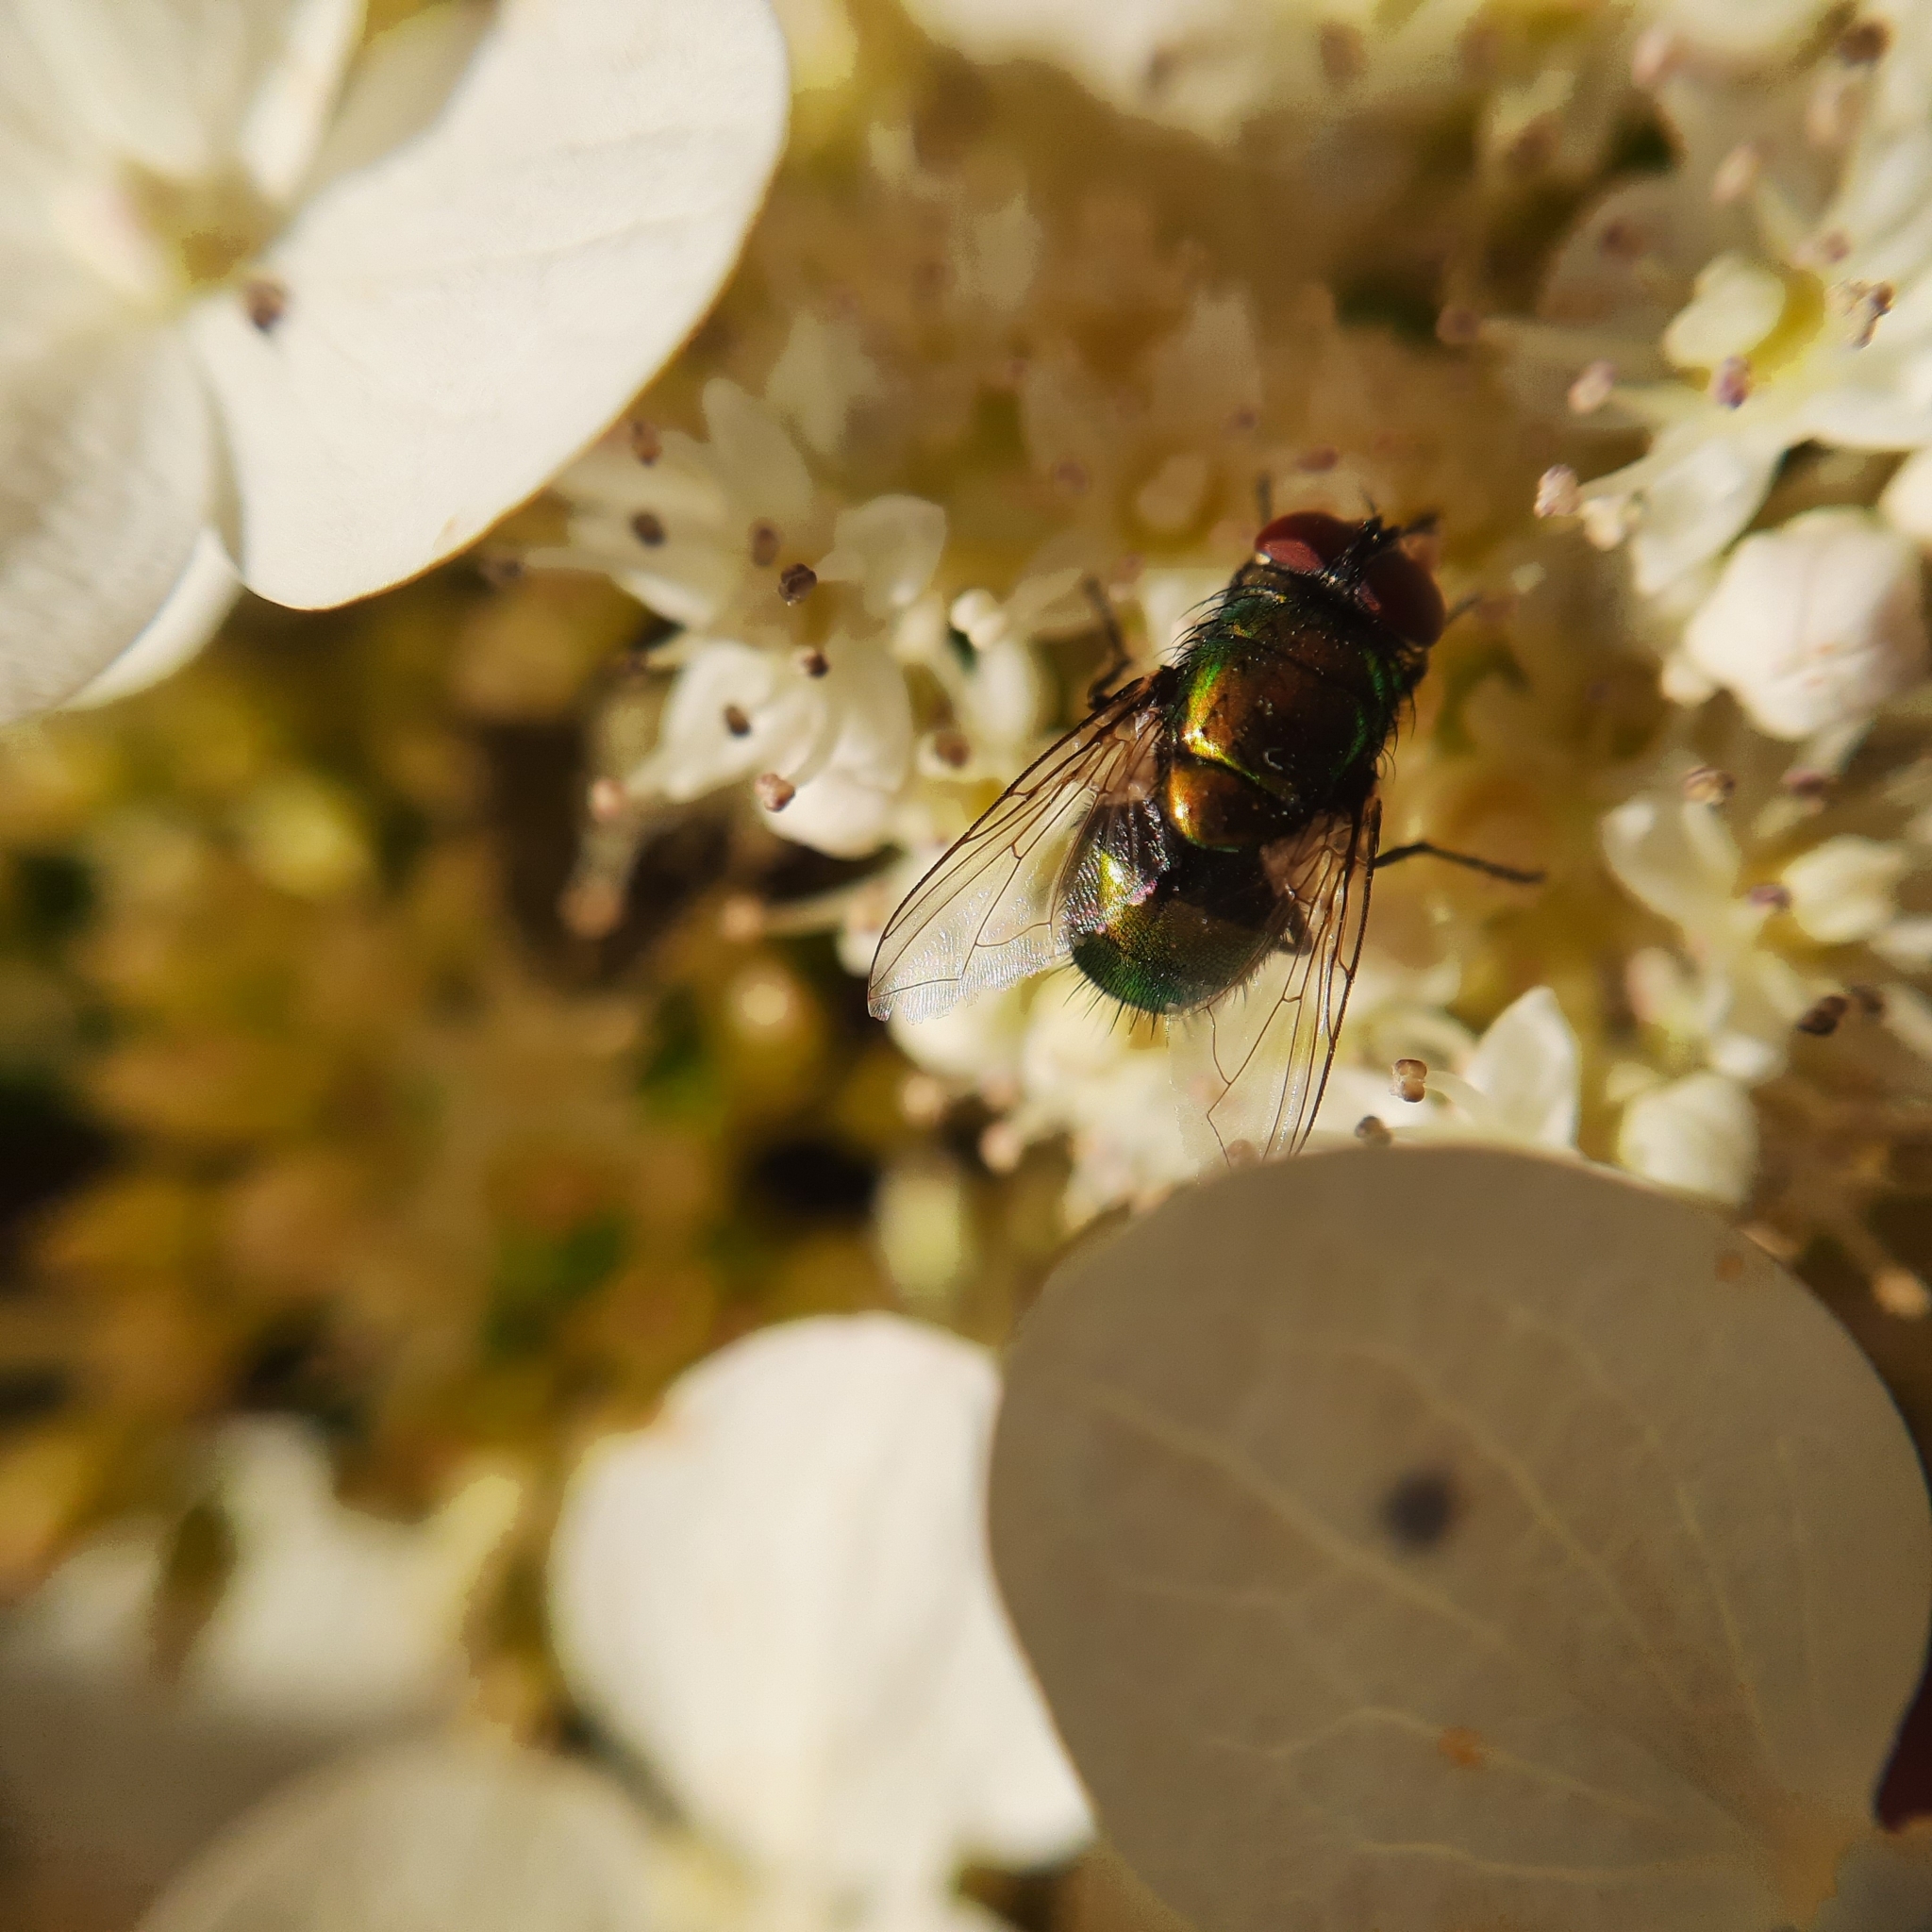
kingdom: Animalia
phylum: Arthropoda
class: Insecta
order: Diptera
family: Calliphoridae
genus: Lucilia
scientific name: Lucilia
